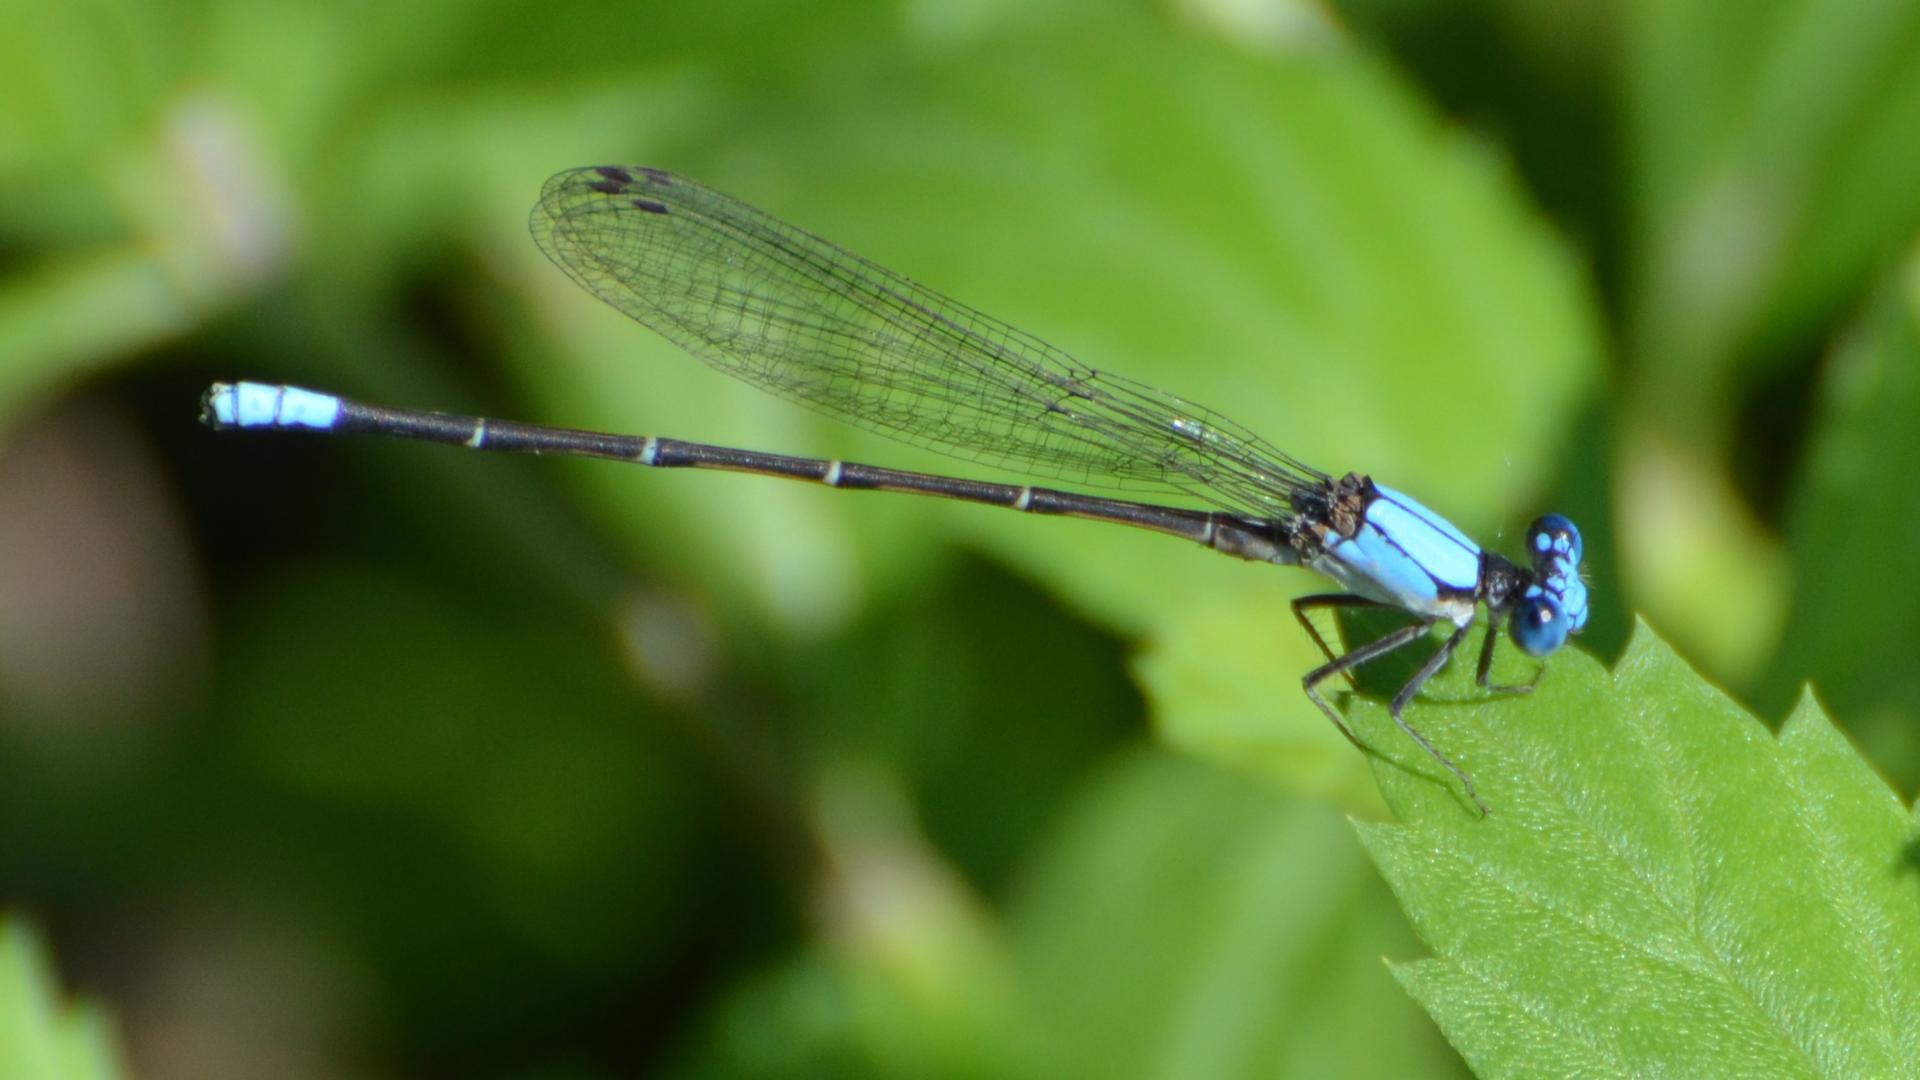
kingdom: Animalia
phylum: Arthropoda
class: Insecta
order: Odonata
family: Coenagrionidae
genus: Argia
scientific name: Argia apicalis
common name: Blue-fronted dancer
